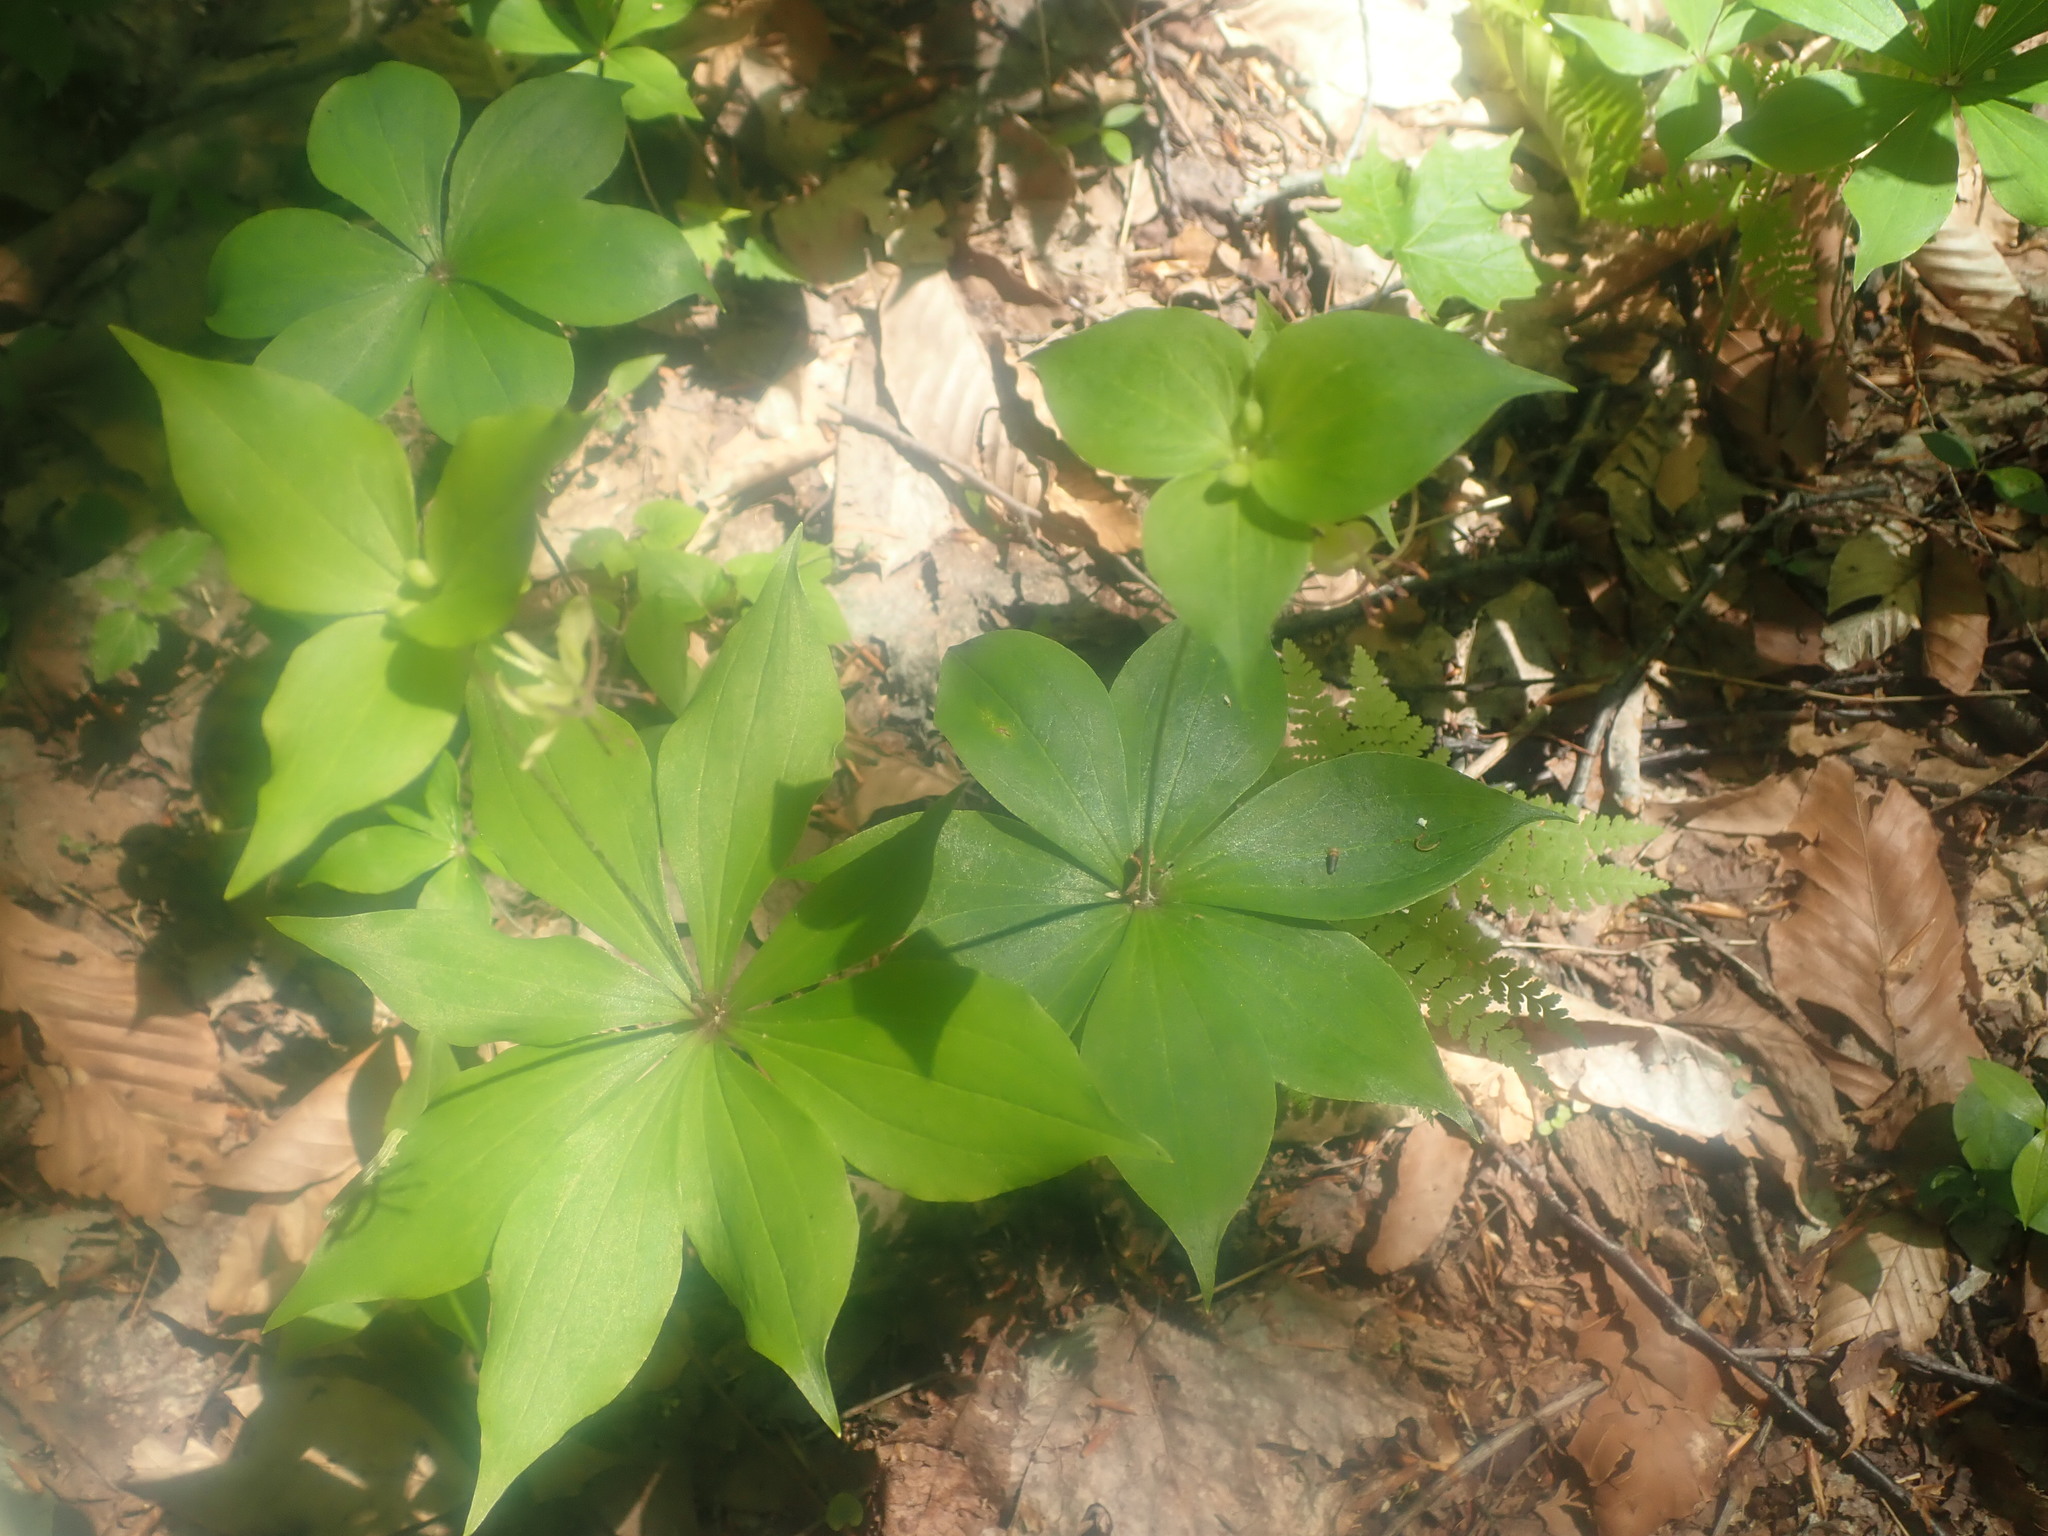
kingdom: Plantae
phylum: Tracheophyta
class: Liliopsida
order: Liliales
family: Liliaceae
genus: Medeola
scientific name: Medeola virginiana
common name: Indian cucumber-root
